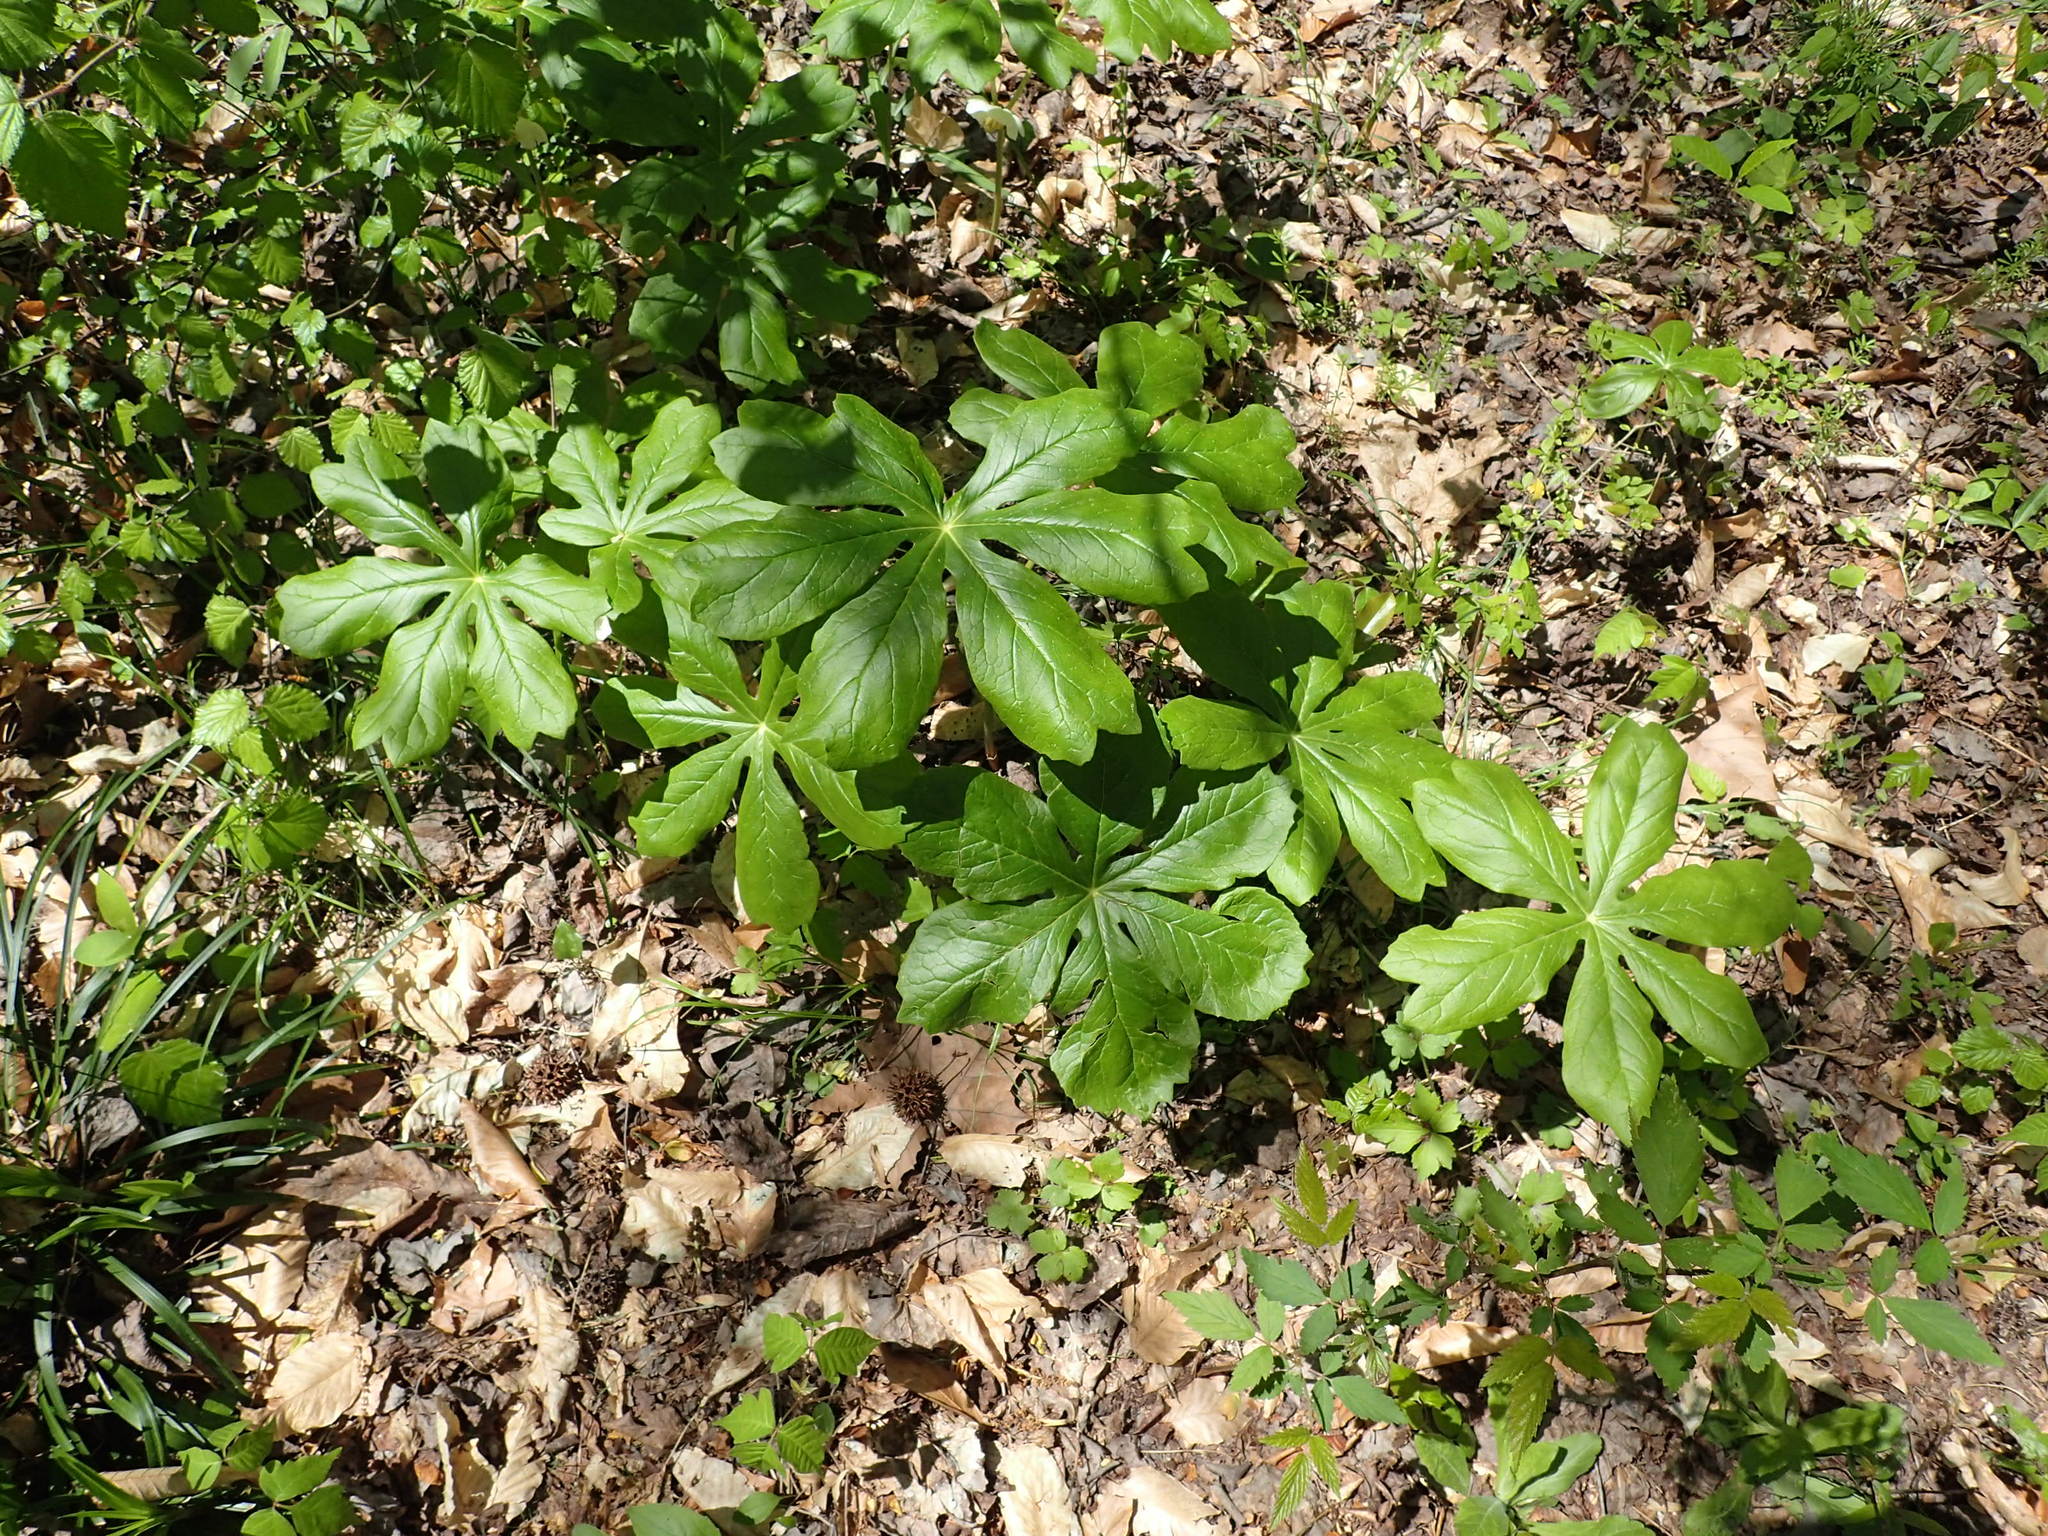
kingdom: Plantae
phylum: Tracheophyta
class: Magnoliopsida
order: Ranunculales
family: Berberidaceae
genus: Podophyllum
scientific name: Podophyllum peltatum
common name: Wild mandrake
